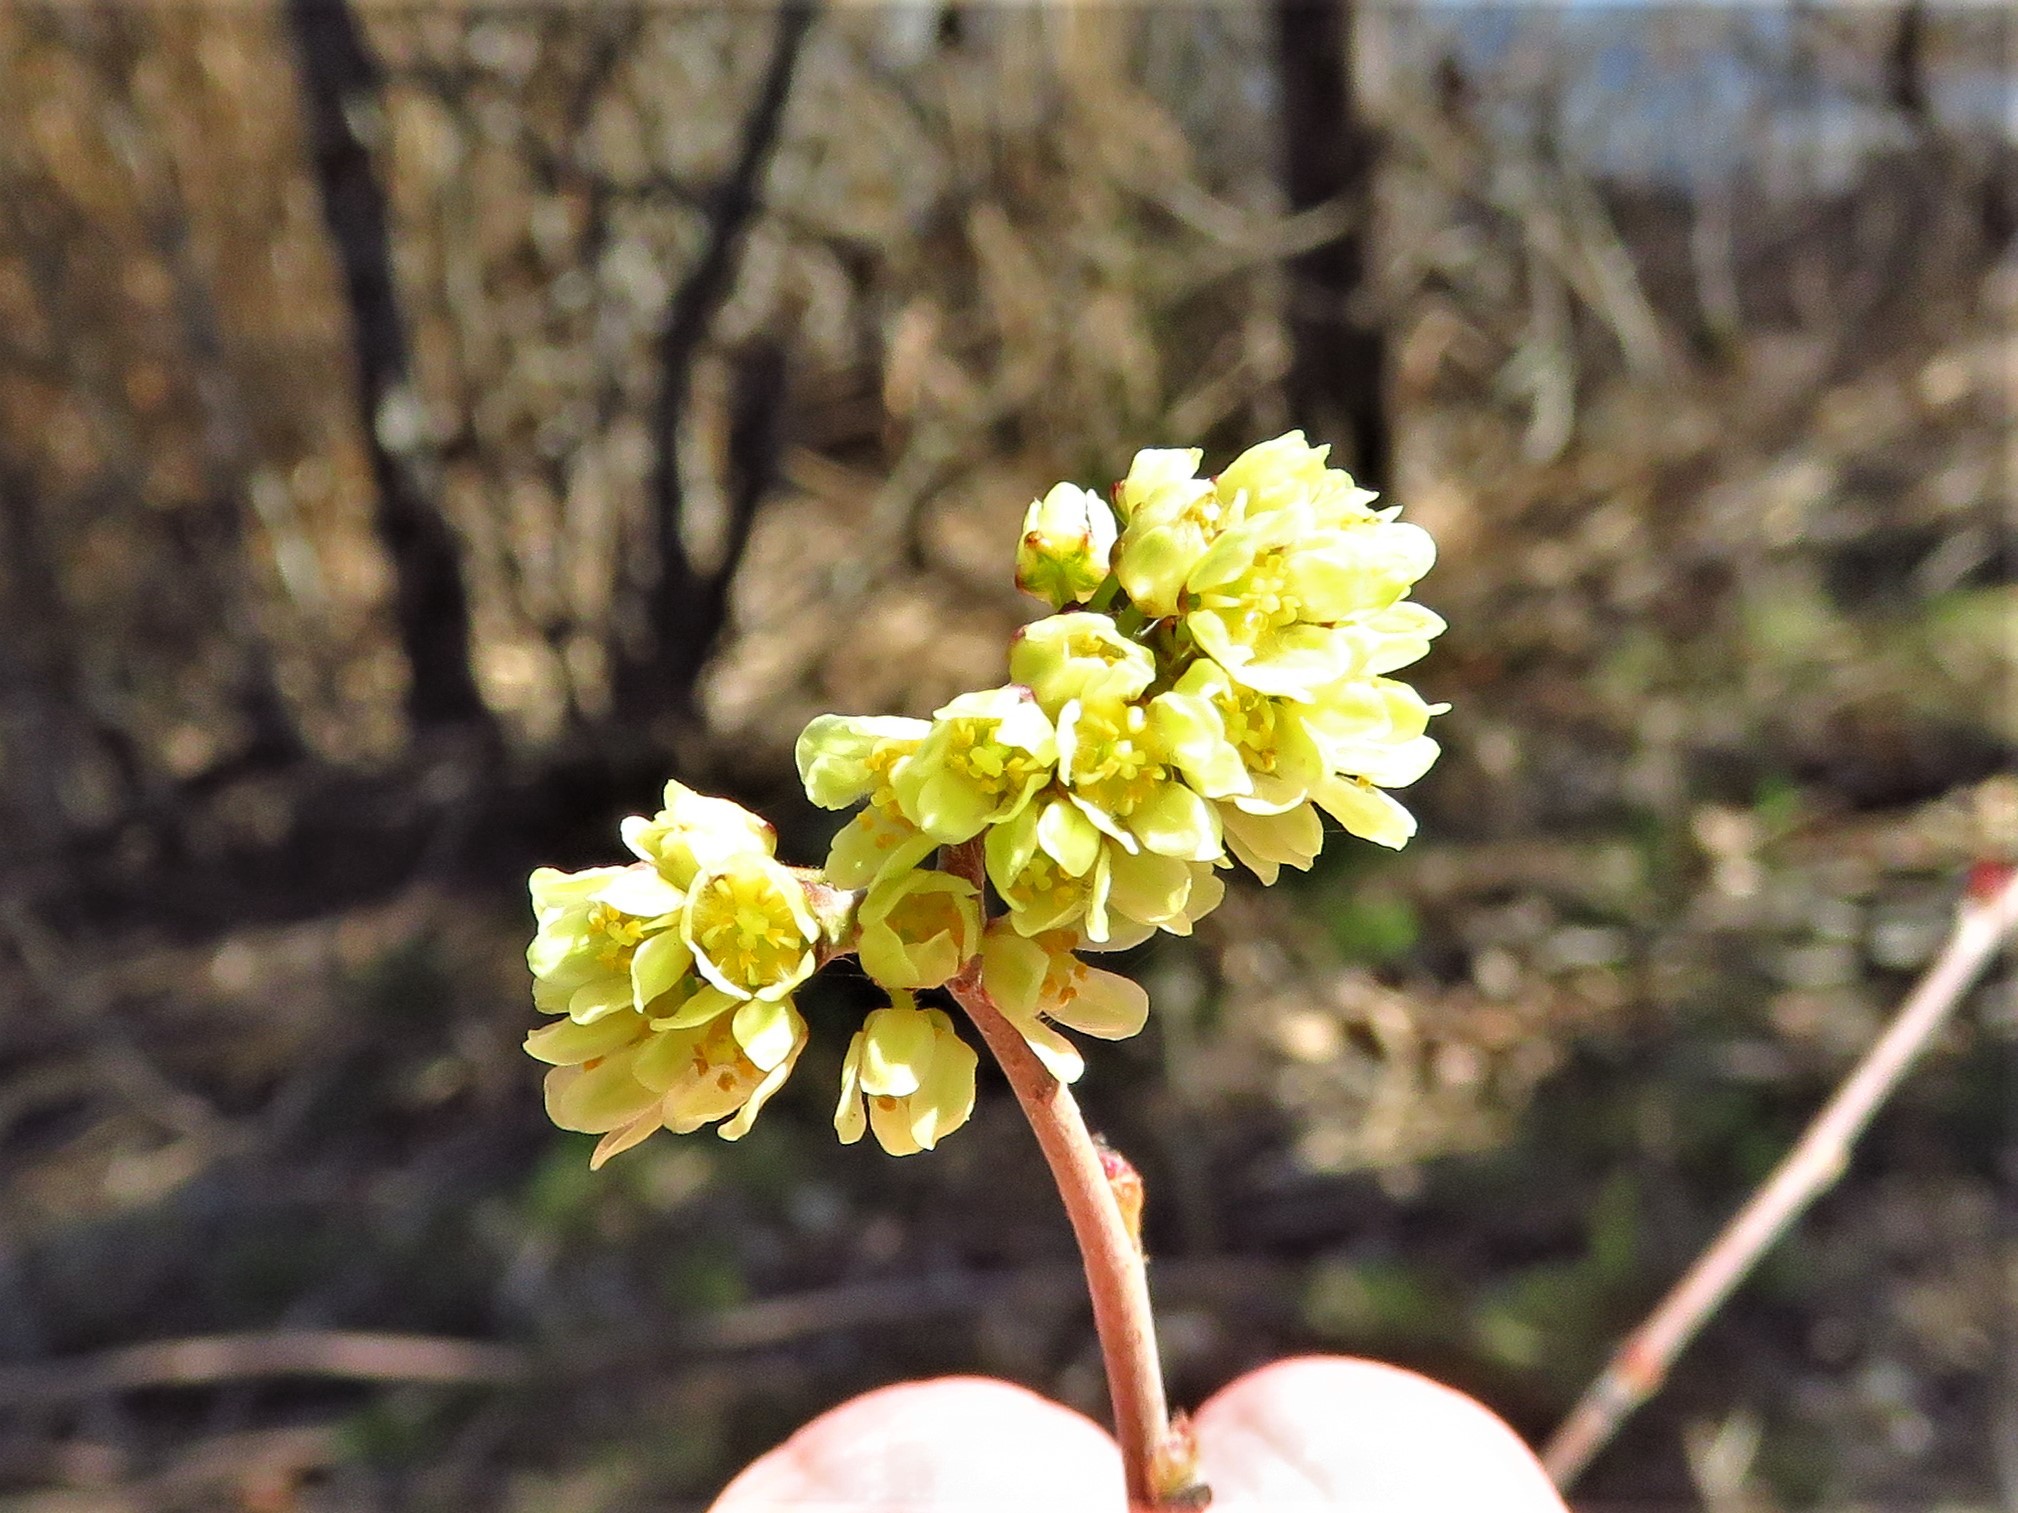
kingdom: Plantae
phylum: Tracheophyta
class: Magnoliopsida
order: Sapindales
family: Anacardiaceae
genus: Rhus
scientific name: Rhus aromatica
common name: Aromatic sumac
